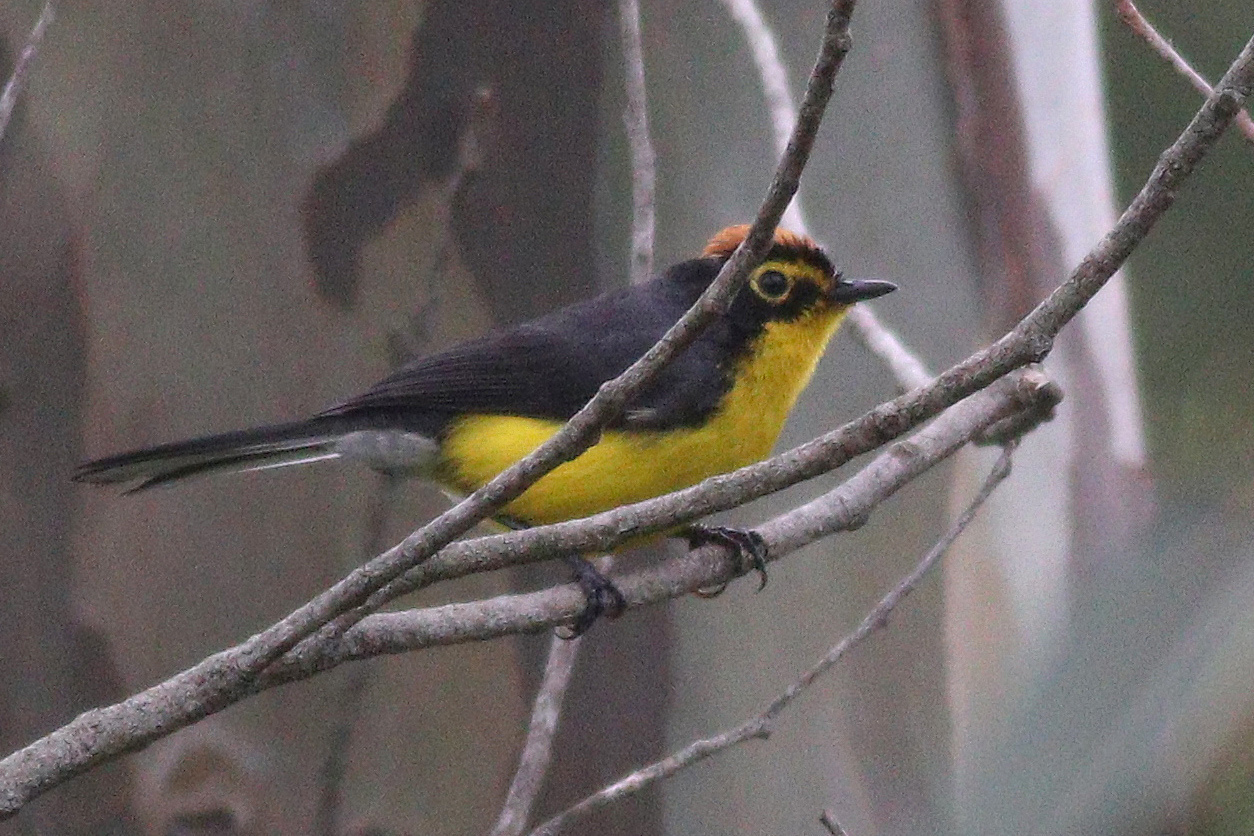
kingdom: Animalia
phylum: Chordata
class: Aves
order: Passeriformes
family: Parulidae
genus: Myioborus
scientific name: Myioborus melanocephalus
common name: Spectacled whitestart
